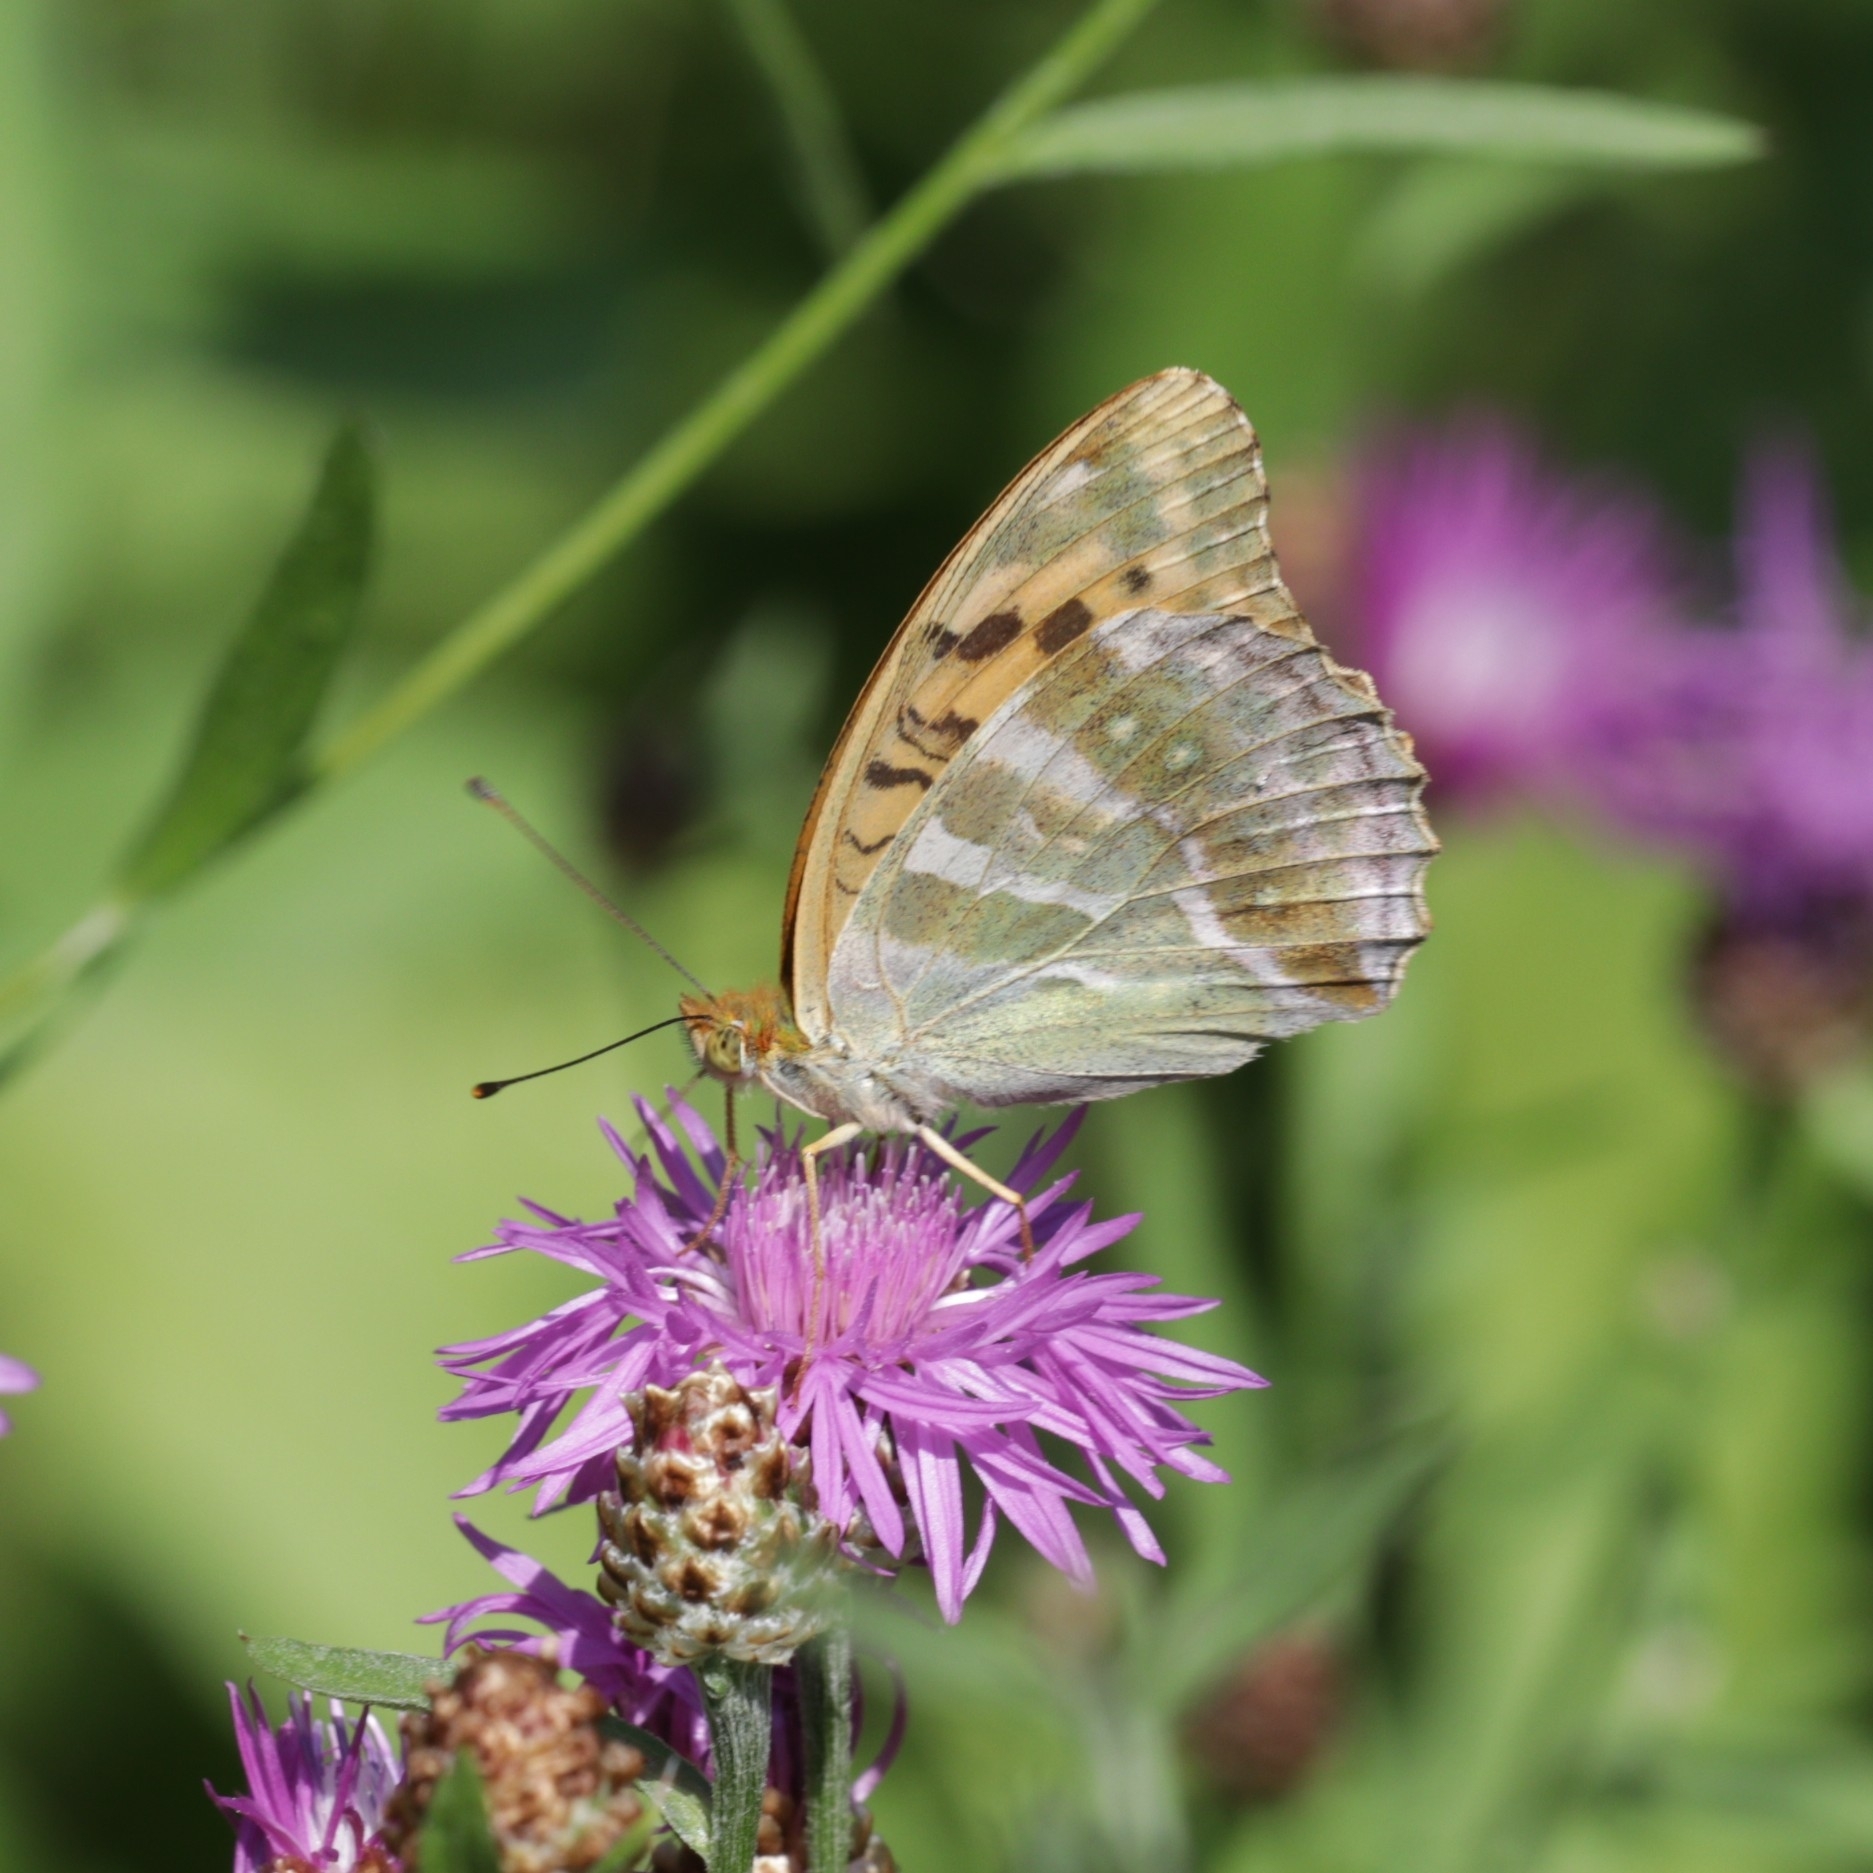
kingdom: Animalia
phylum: Arthropoda
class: Insecta
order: Lepidoptera
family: Nymphalidae
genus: Argynnis
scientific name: Argynnis paphia
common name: Silver-washed fritillary
